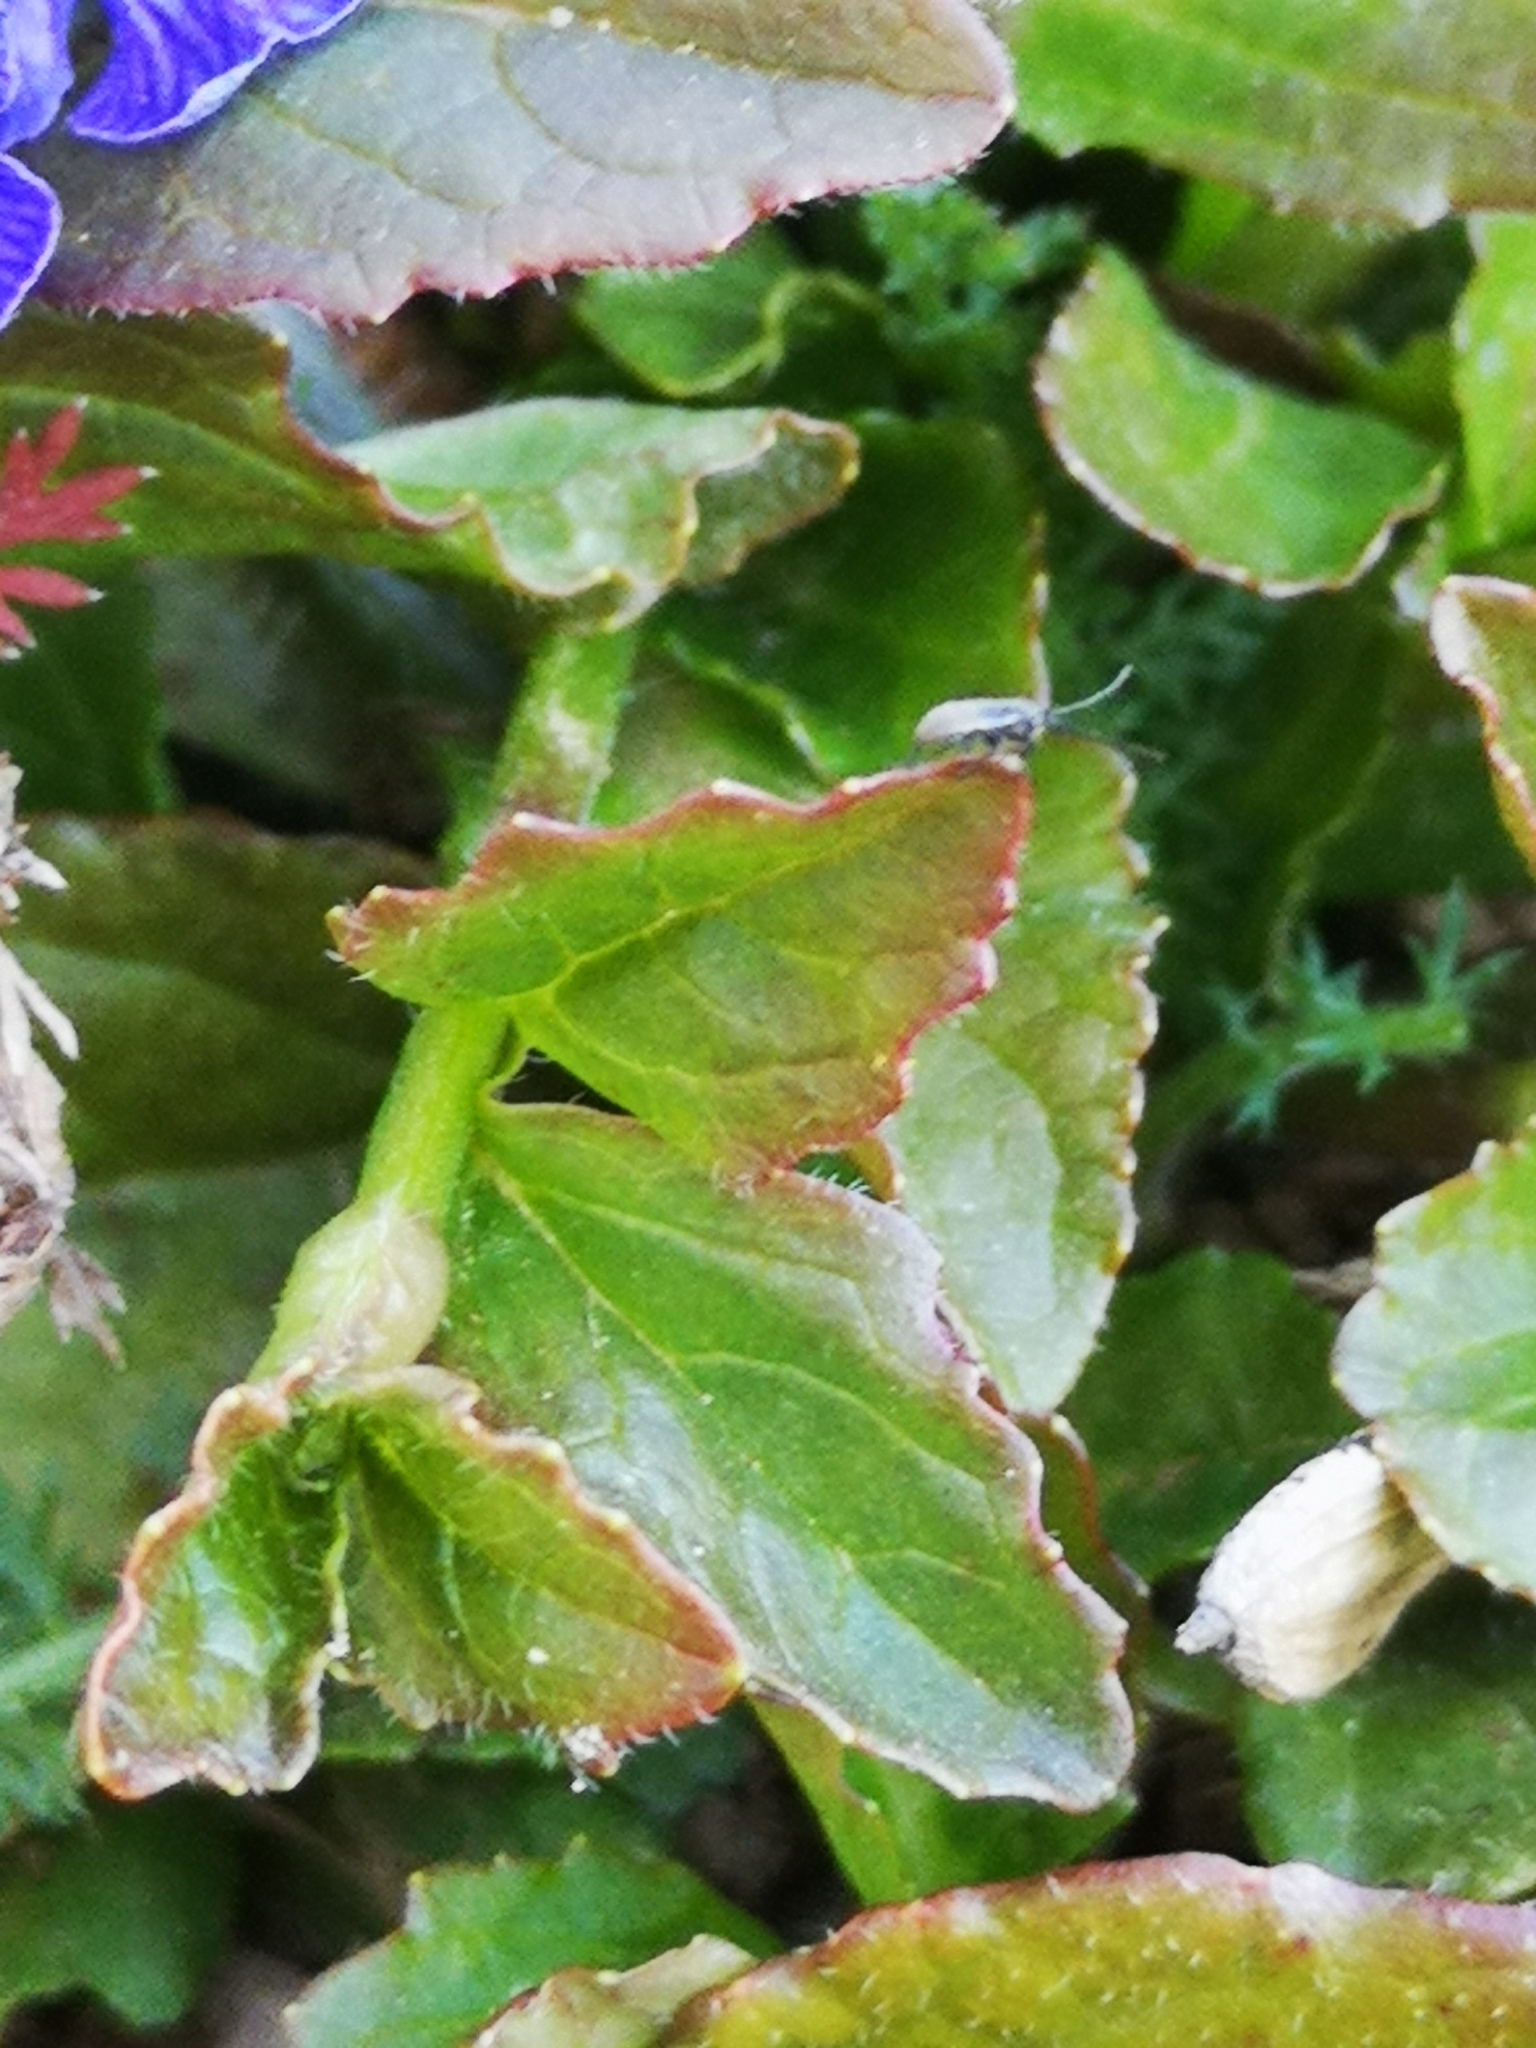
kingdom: Plantae
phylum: Tracheophyta
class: Magnoliopsida
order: Lamiales
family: Lamiaceae
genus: Ajuga
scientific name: Ajuga reptans
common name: Bugle
